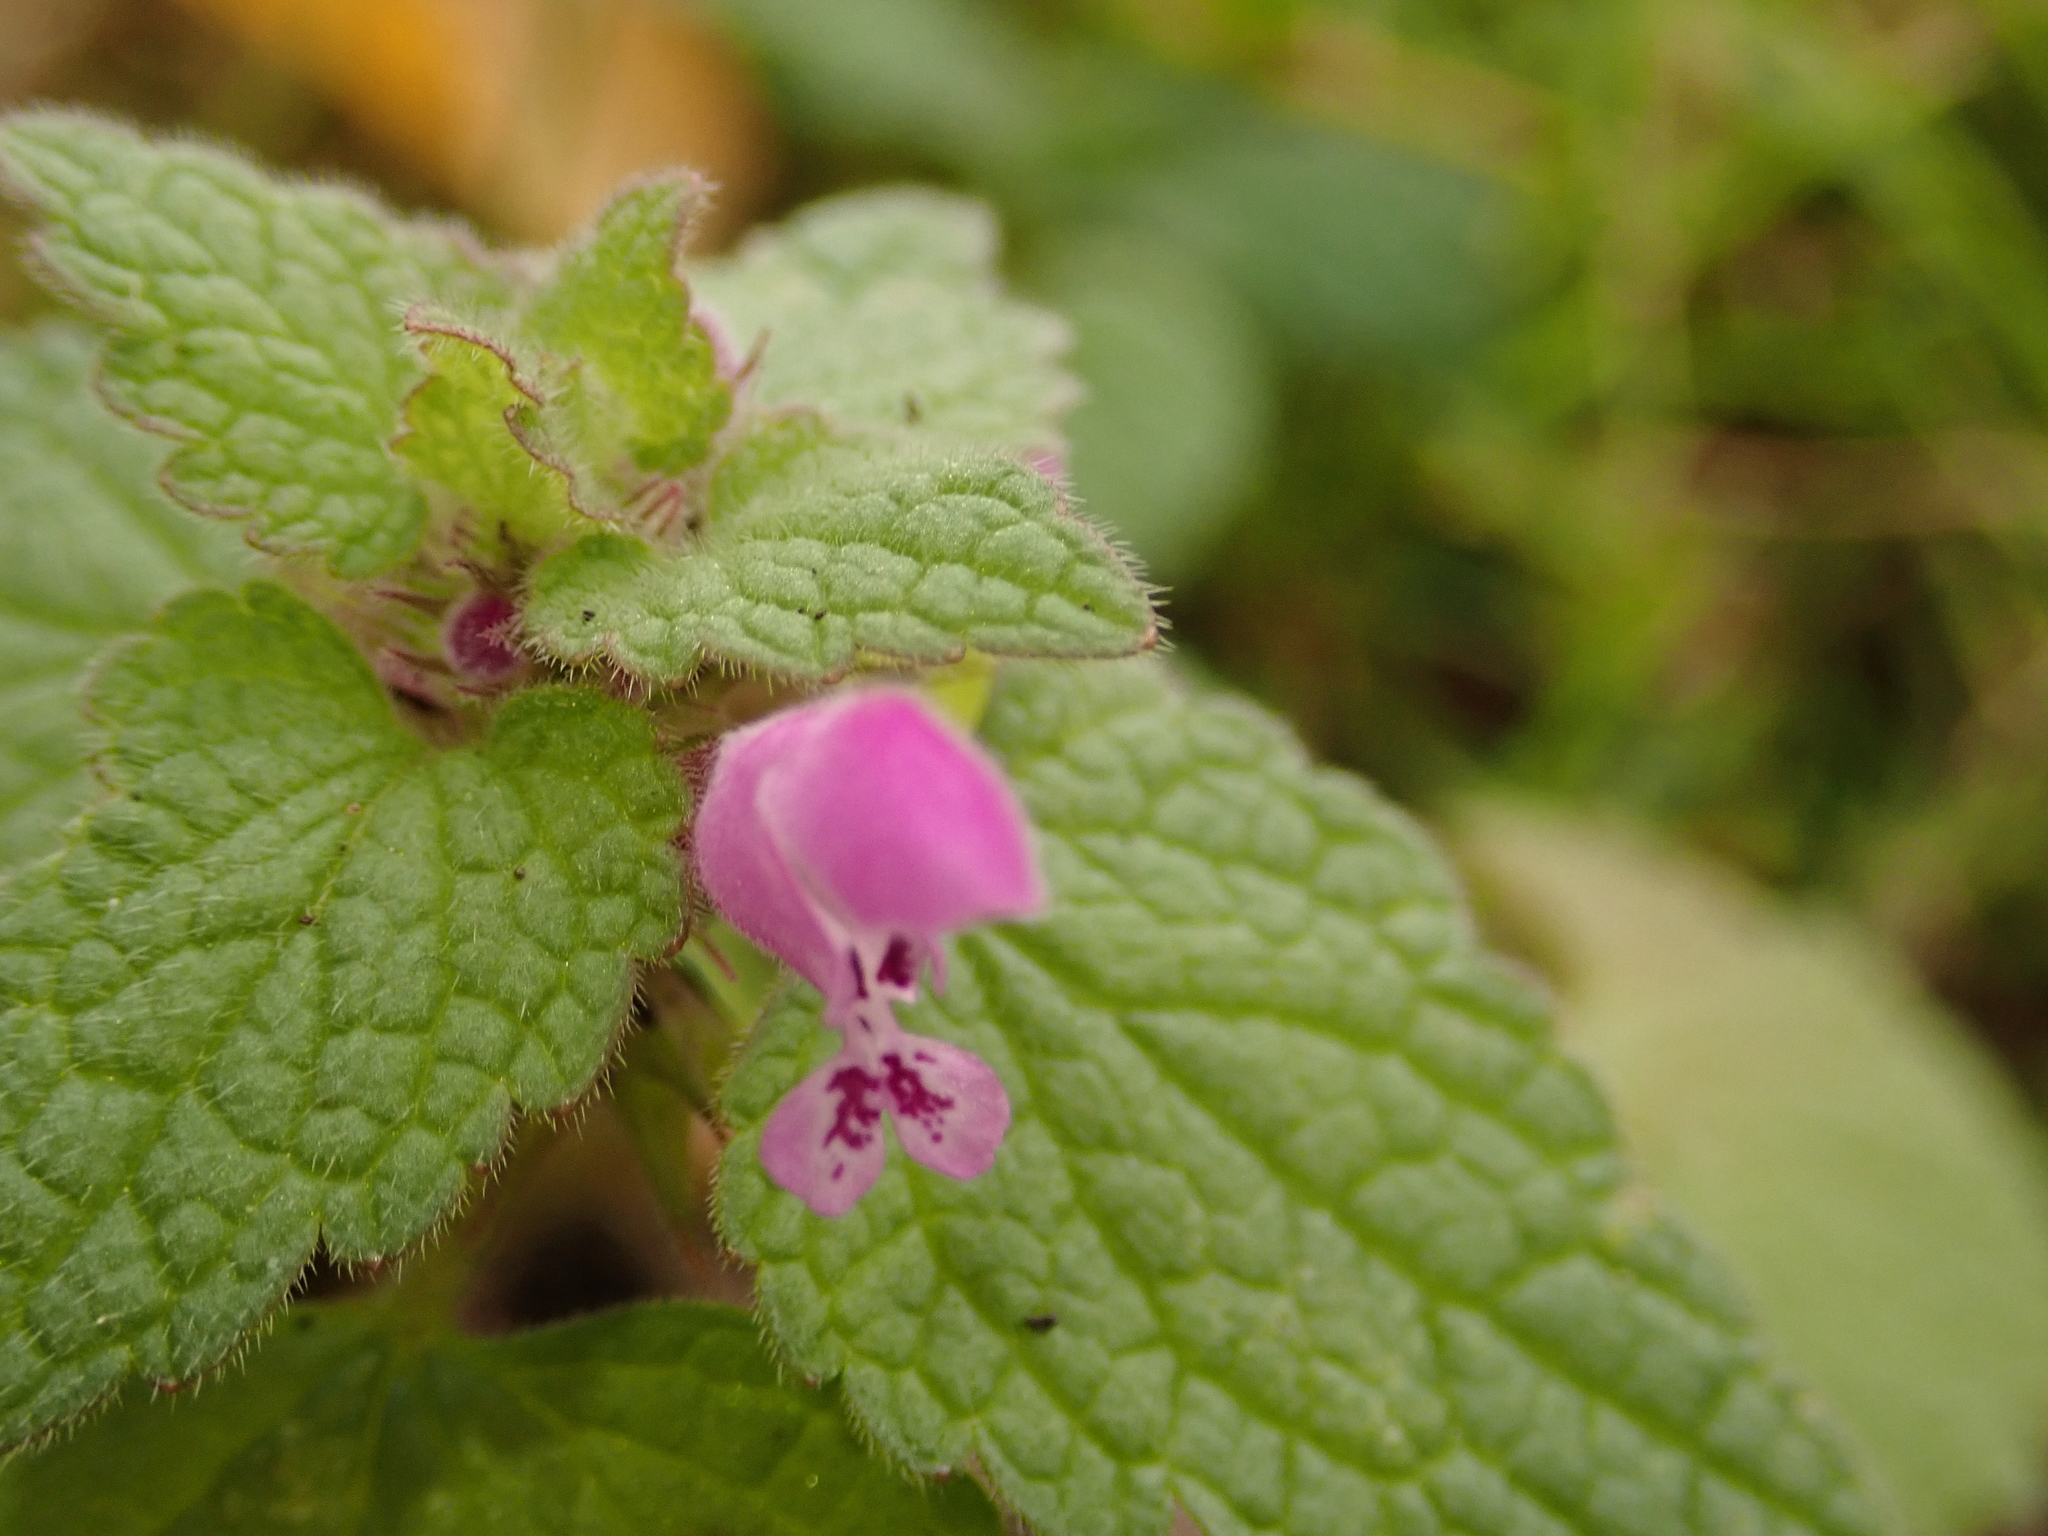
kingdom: Plantae
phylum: Tracheophyta
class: Magnoliopsida
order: Lamiales
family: Lamiaceae
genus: Lamium
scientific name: Lamium purpureum
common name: Red dead-nettle
